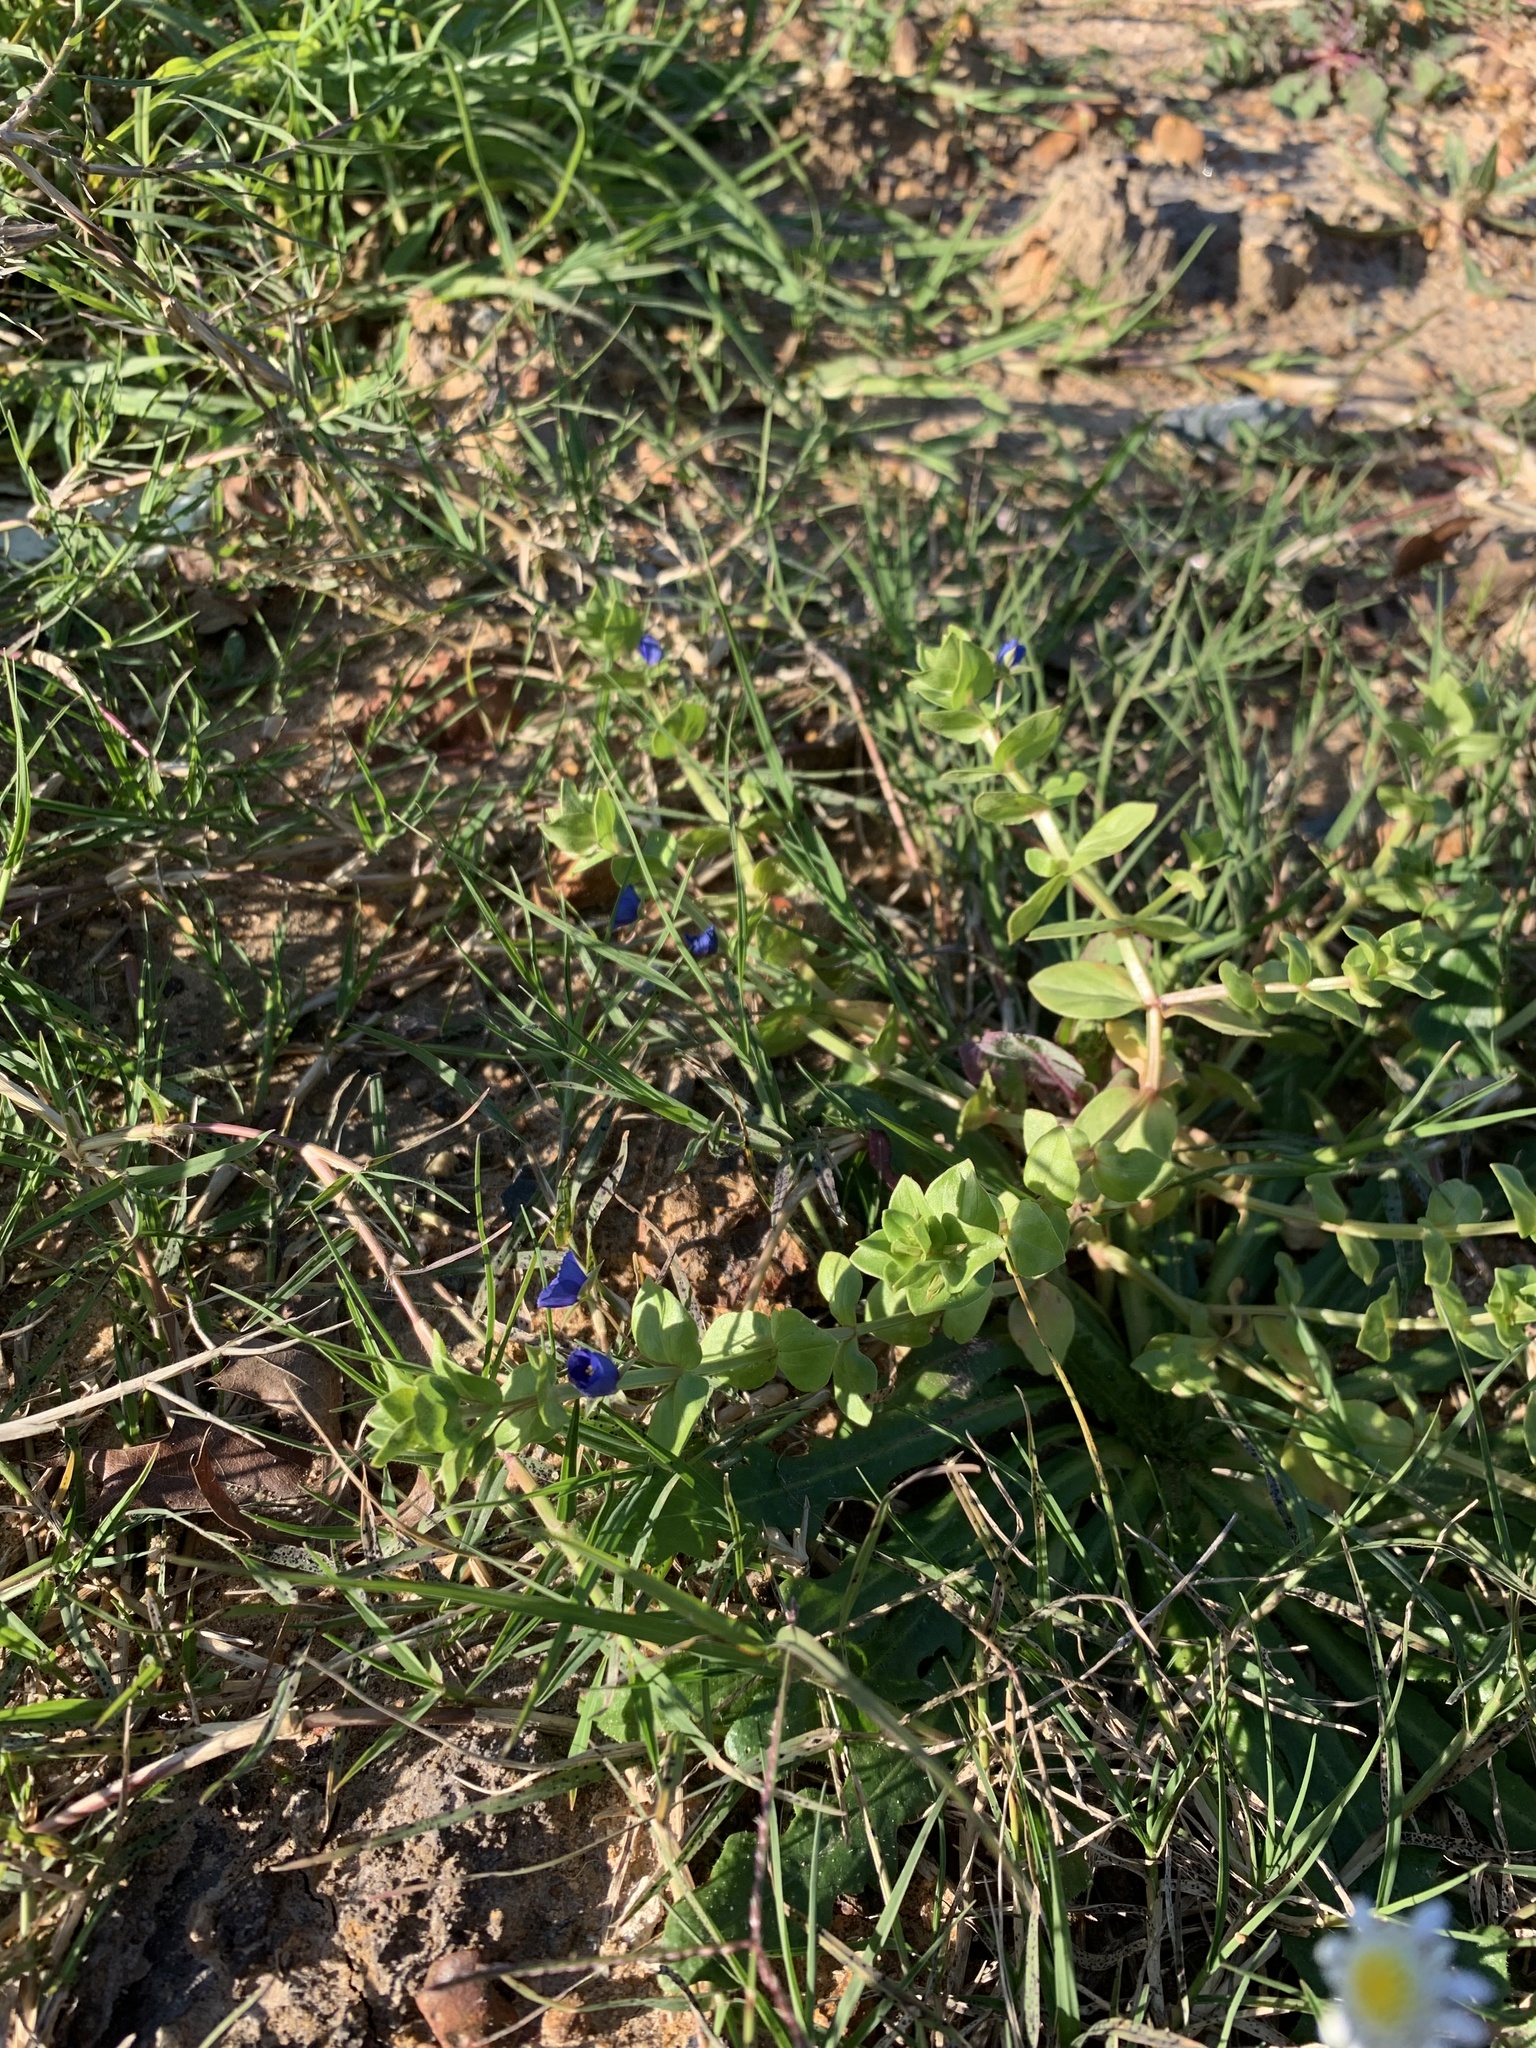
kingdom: Plantae
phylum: Tracheophyta
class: Magnoliopsida
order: Ericales
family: Primulaceae
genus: Lysimachia
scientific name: Lysimachia loeflingii
